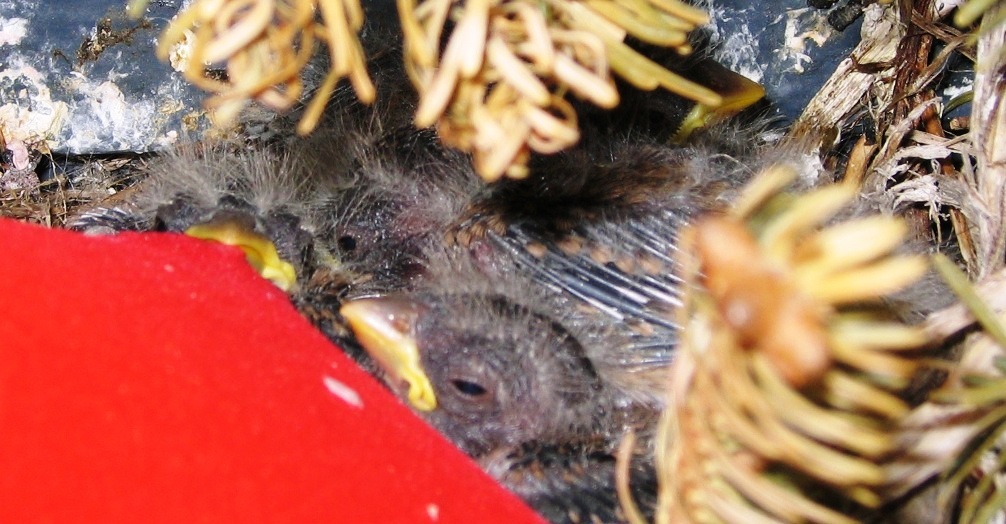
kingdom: Animalia
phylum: Chordata
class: Aves
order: Passeriformes
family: Fringillidae
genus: Haemorhous
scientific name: Haemorhous mexicanus
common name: House finch
